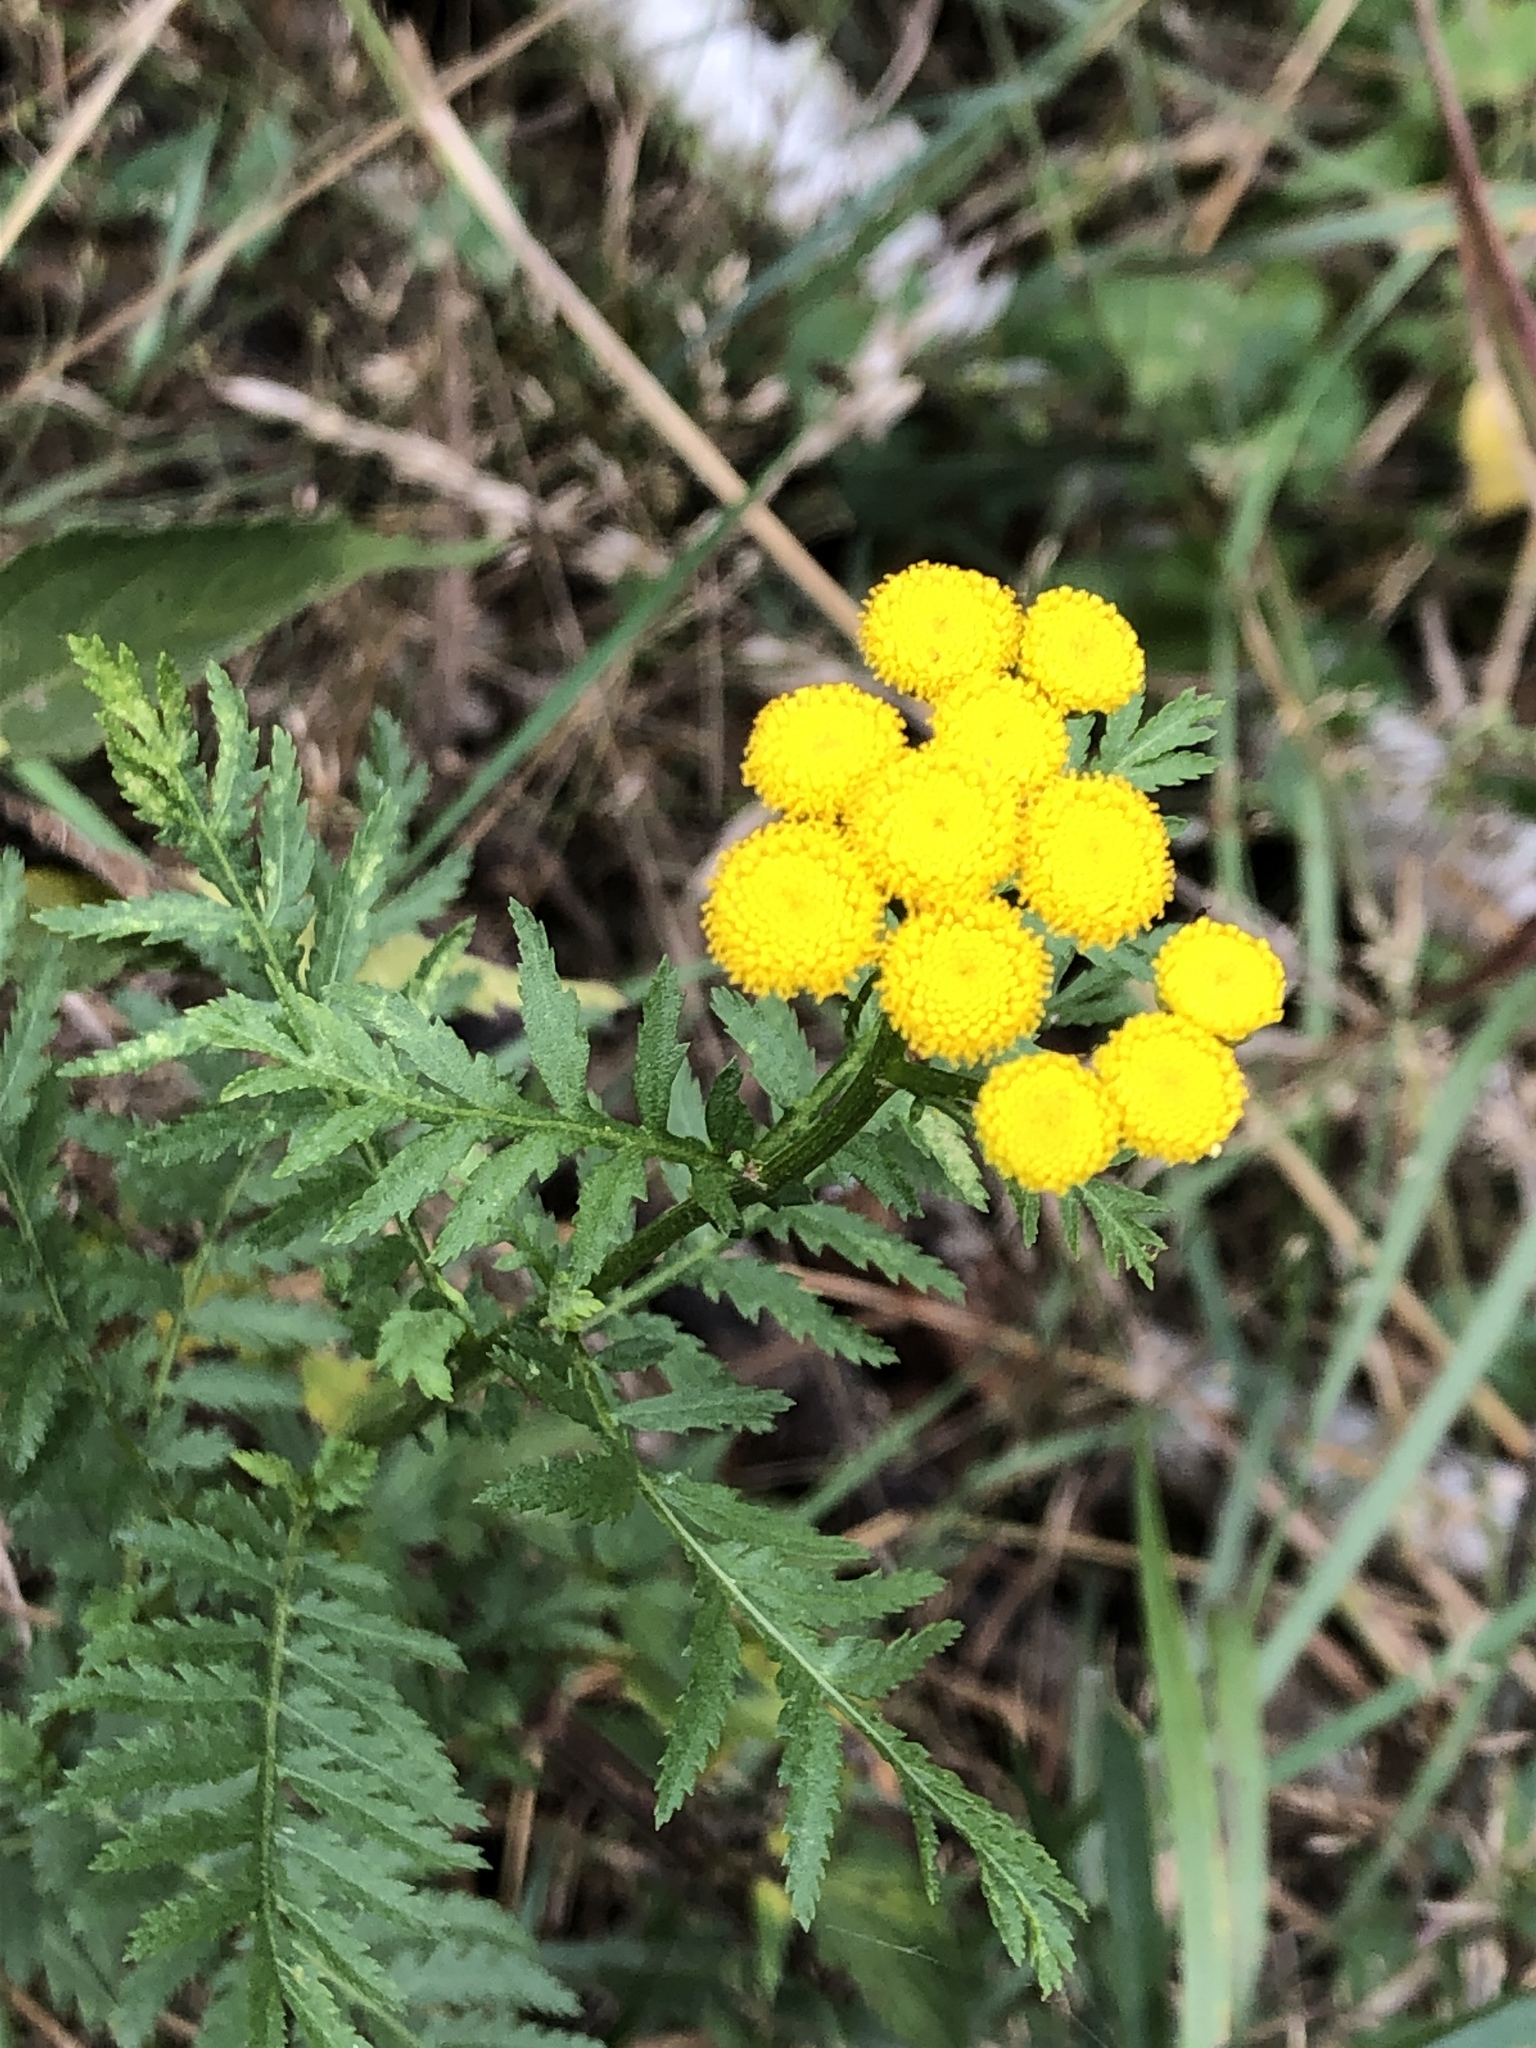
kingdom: Plantae
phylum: Tracheophyta
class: Magnoliopsida
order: Asterales
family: Asteraceae
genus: Tanacetum
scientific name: Tanacetum vulgare
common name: Common tansy
